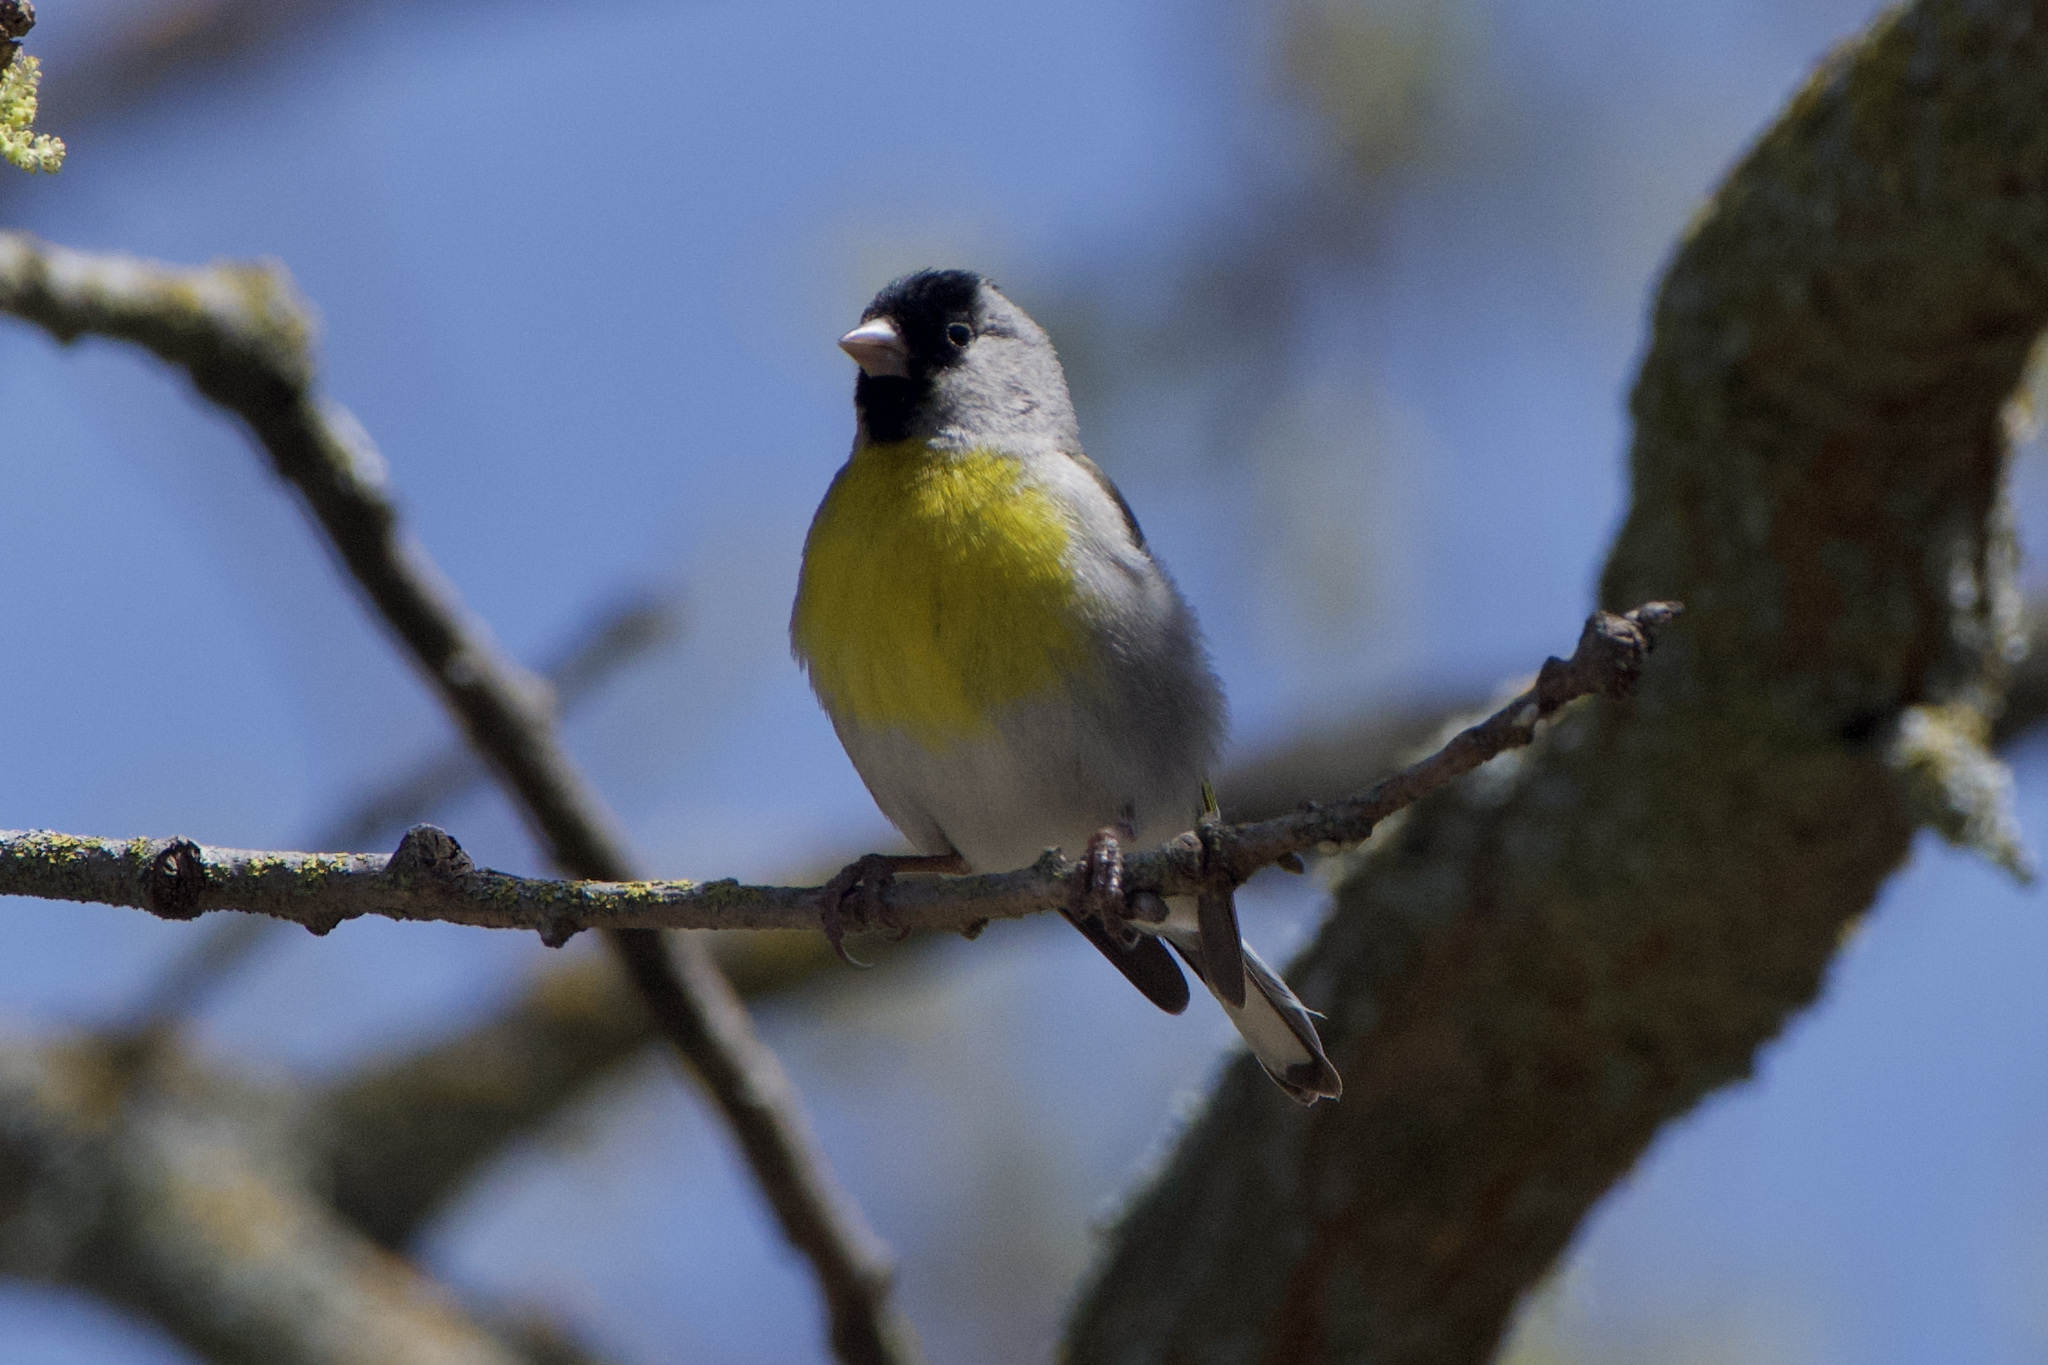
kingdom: Animalia
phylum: Chordata
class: Aves
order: Passeriformes
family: Fringillidae
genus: Spinus
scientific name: Spinus lawrencei
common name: Lawrence's goldfinch
